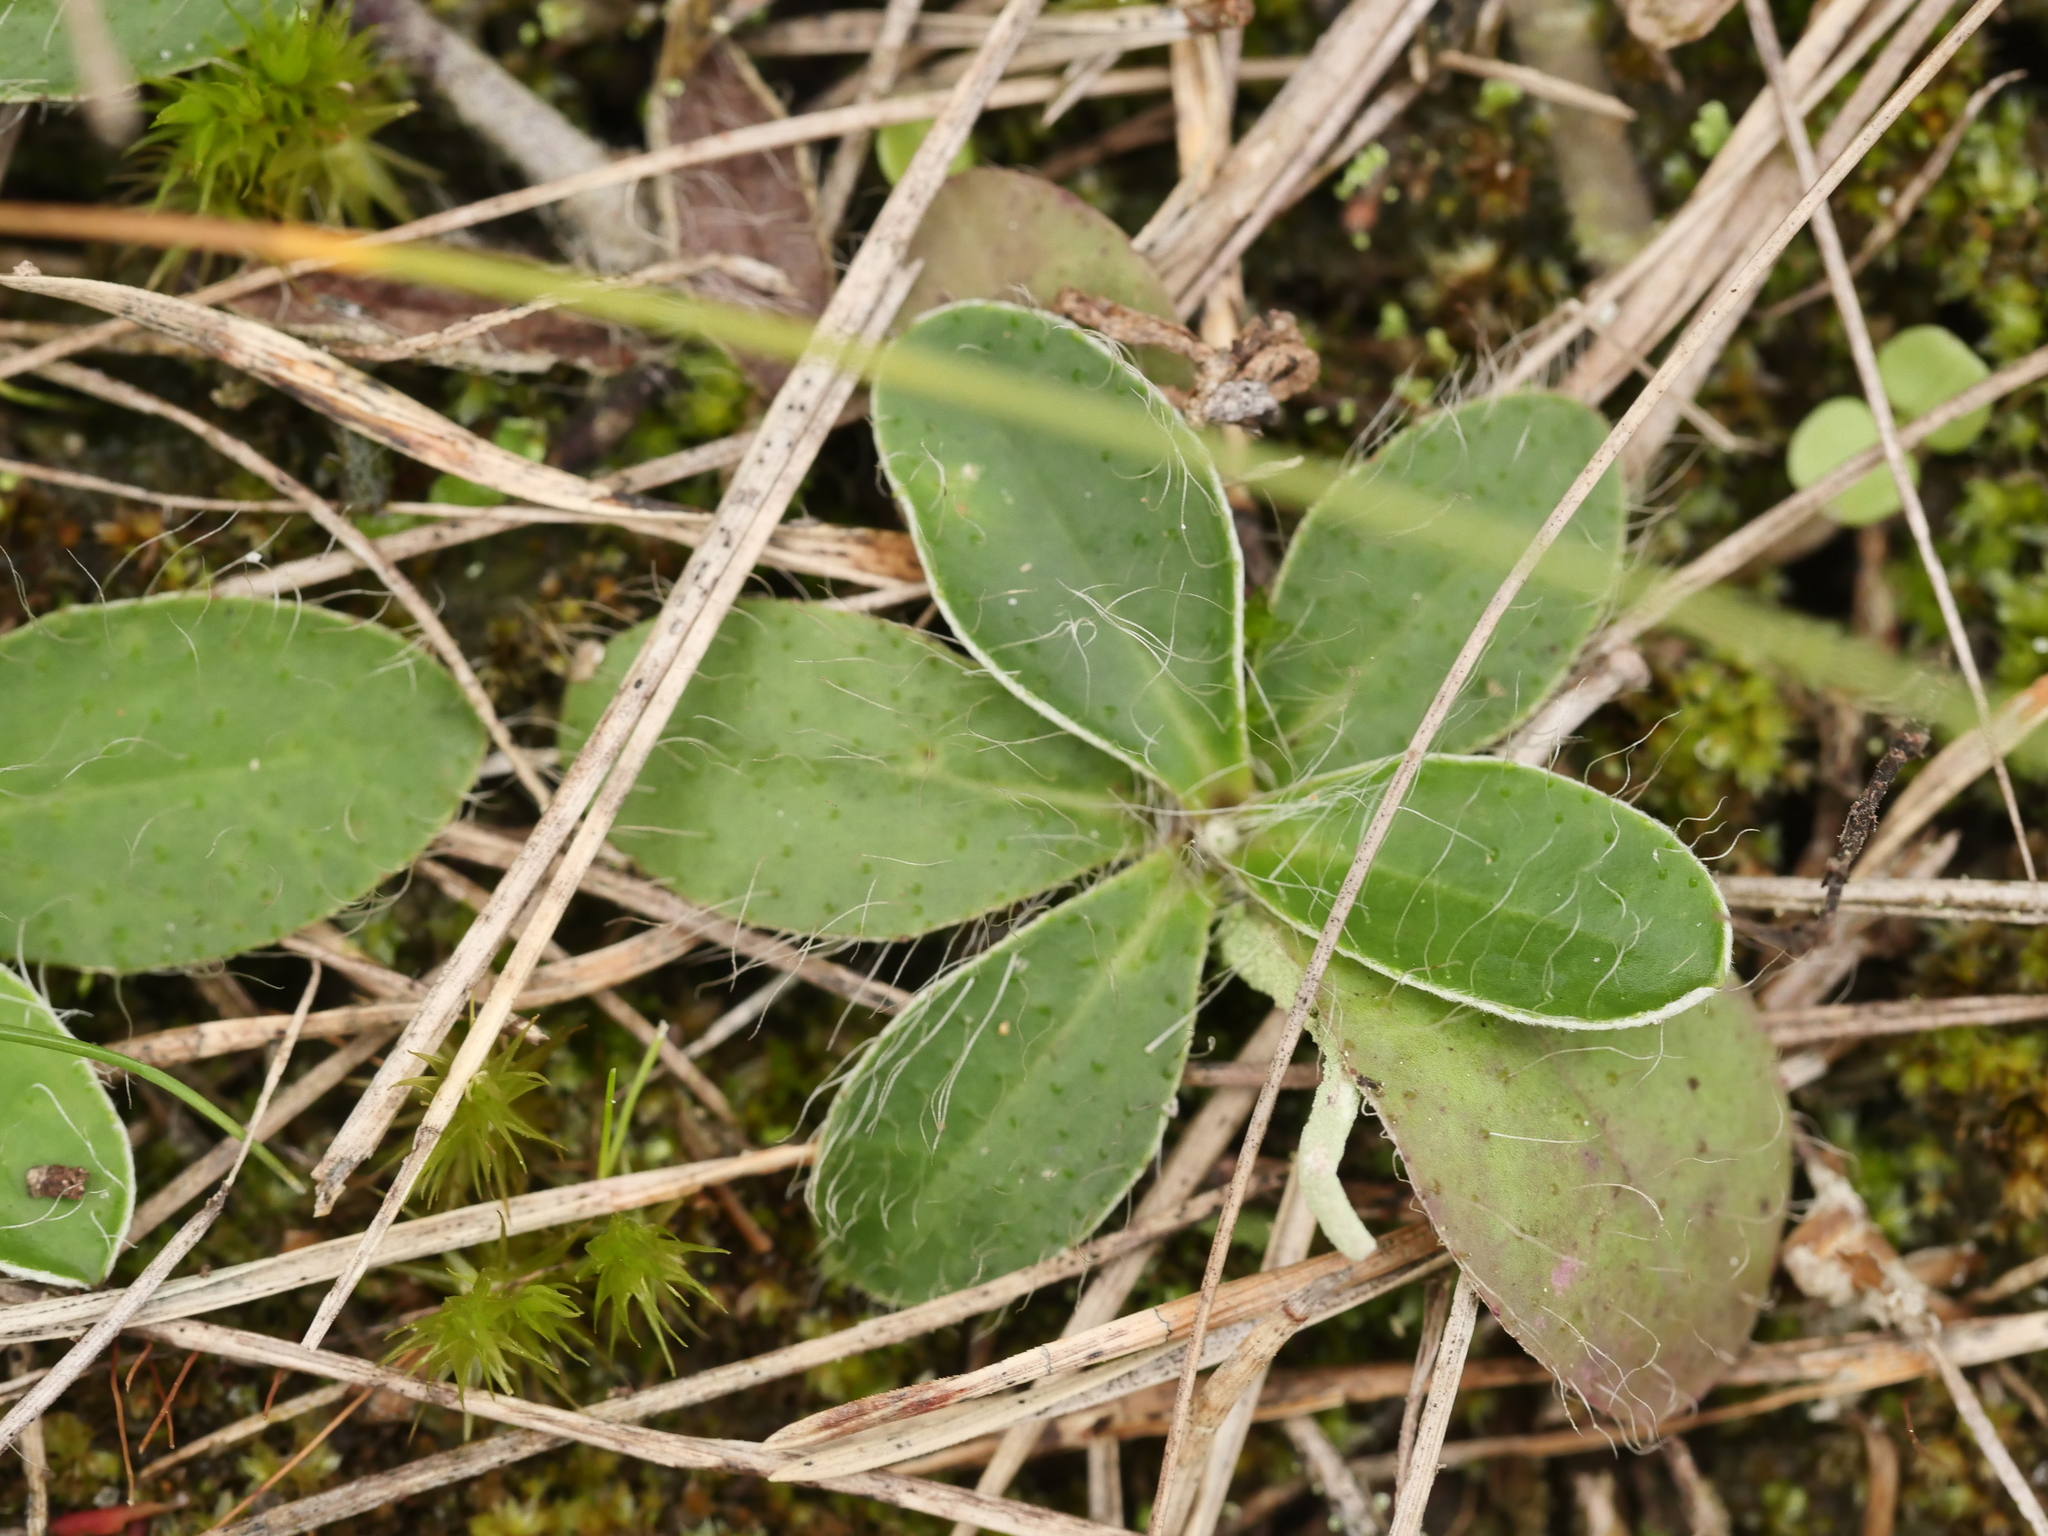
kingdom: Plantae
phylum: Tracheophyta
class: Magnoliopsida
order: Asterales
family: Asteraceae
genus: Pilosella
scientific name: Pilosella officinarum
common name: Mouse-ear hawkweed
